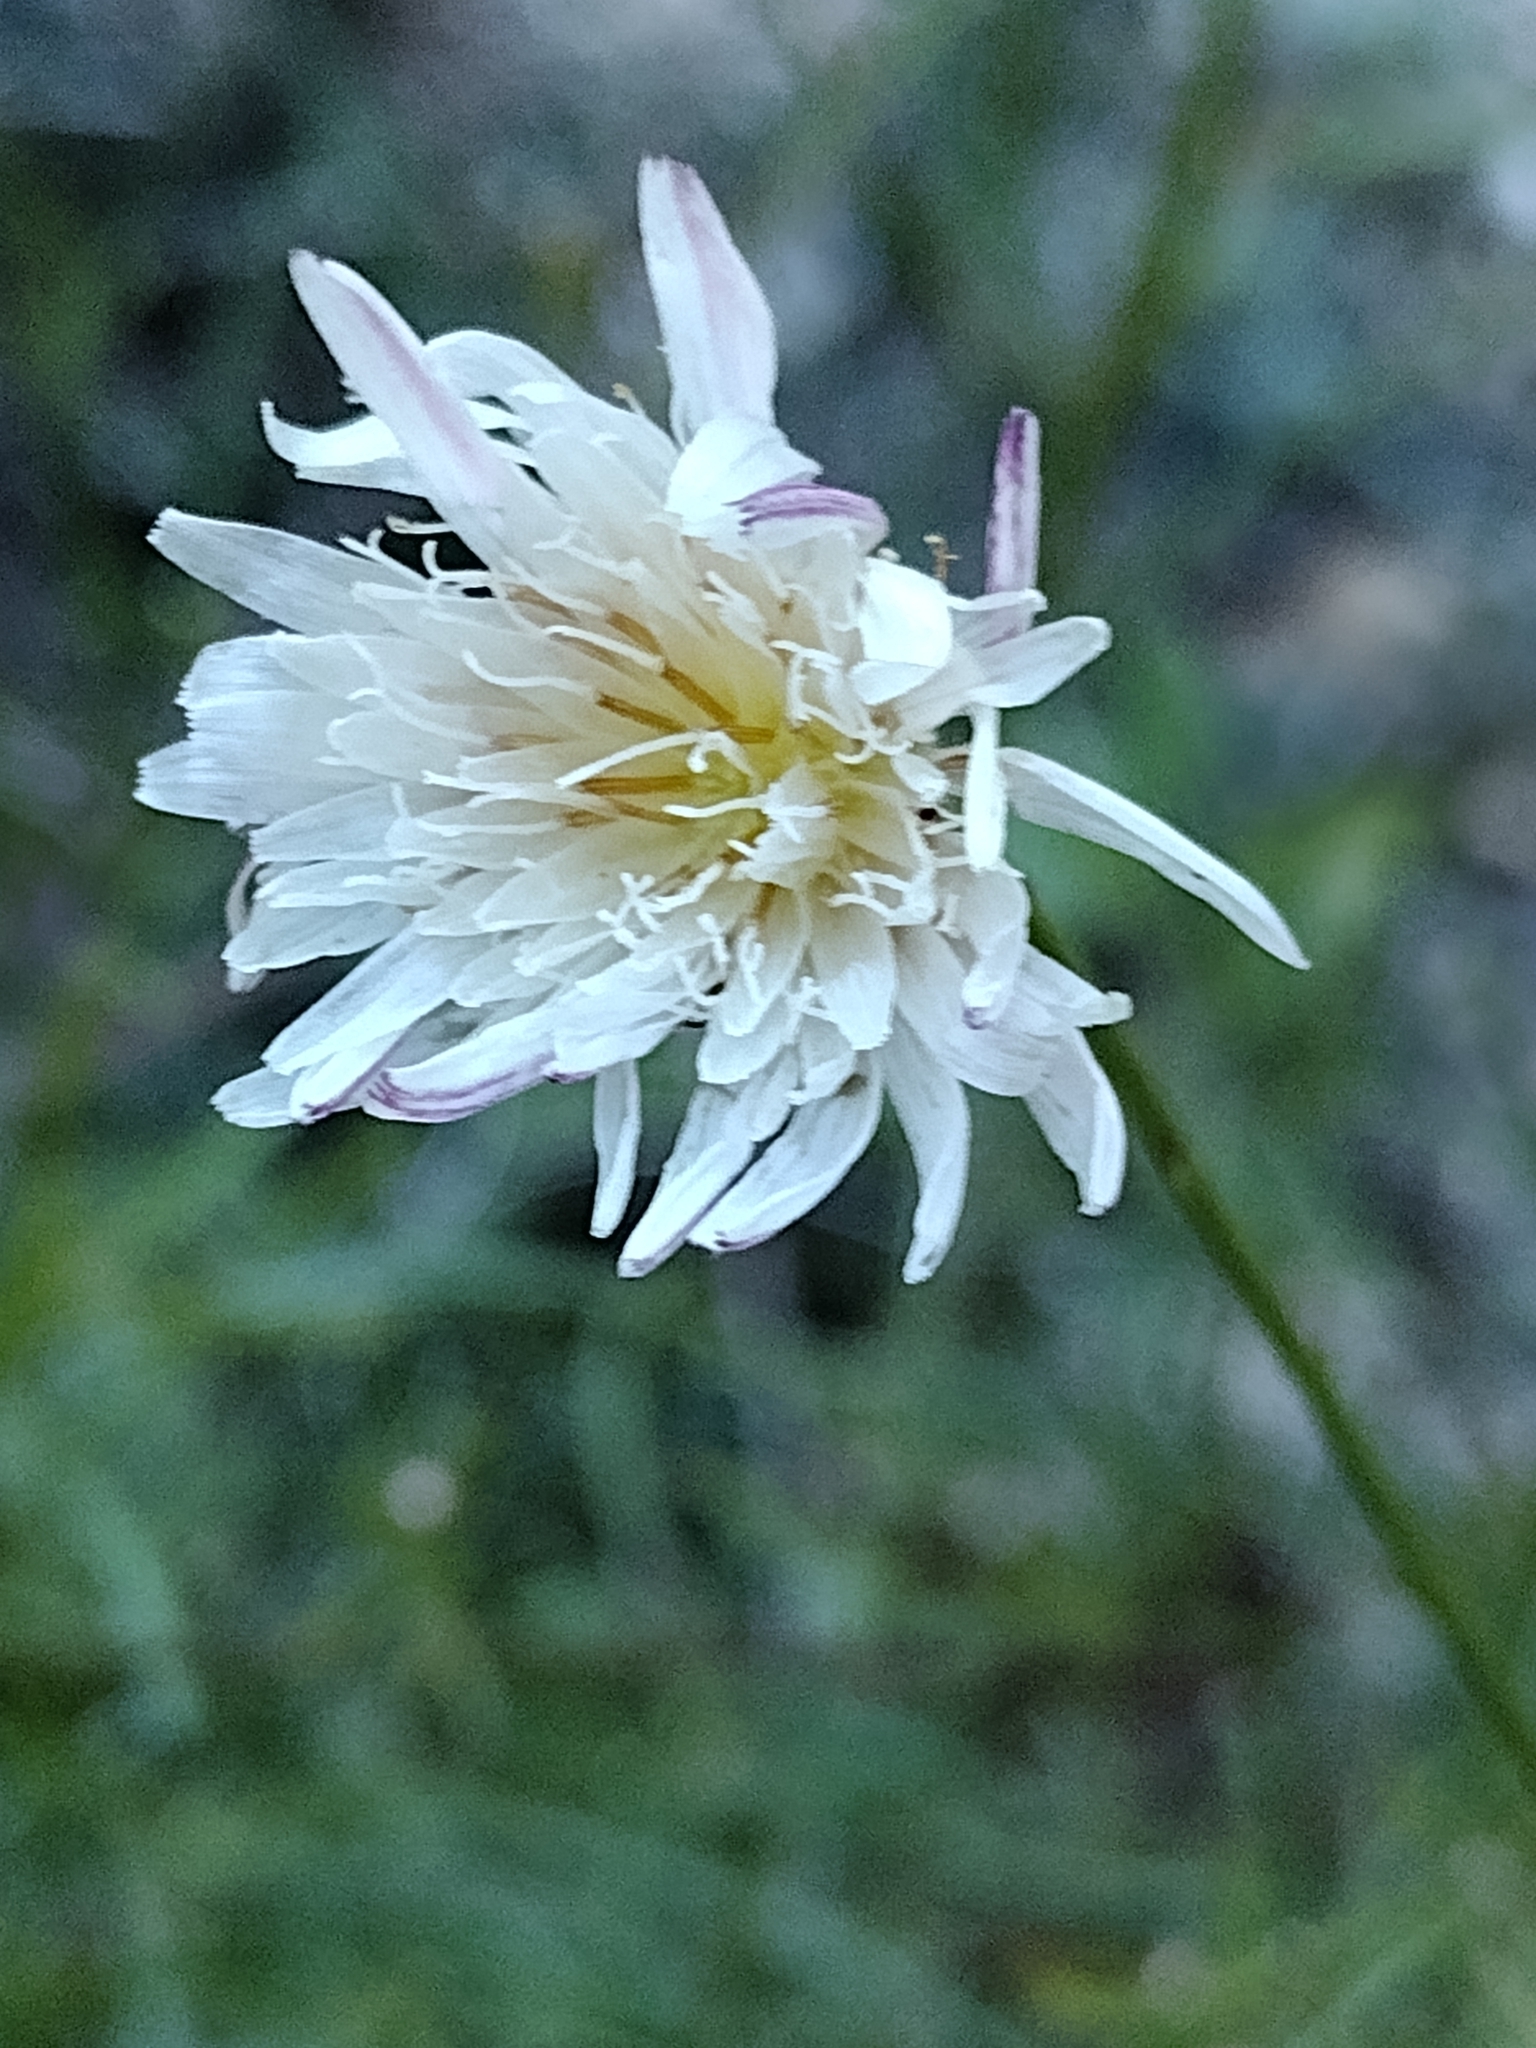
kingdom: Plantae
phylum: Tracheophyta
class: Magnoliopsida
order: Asterales
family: Asteraceae
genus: Malacothrix
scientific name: Malacothrix saxatilis
